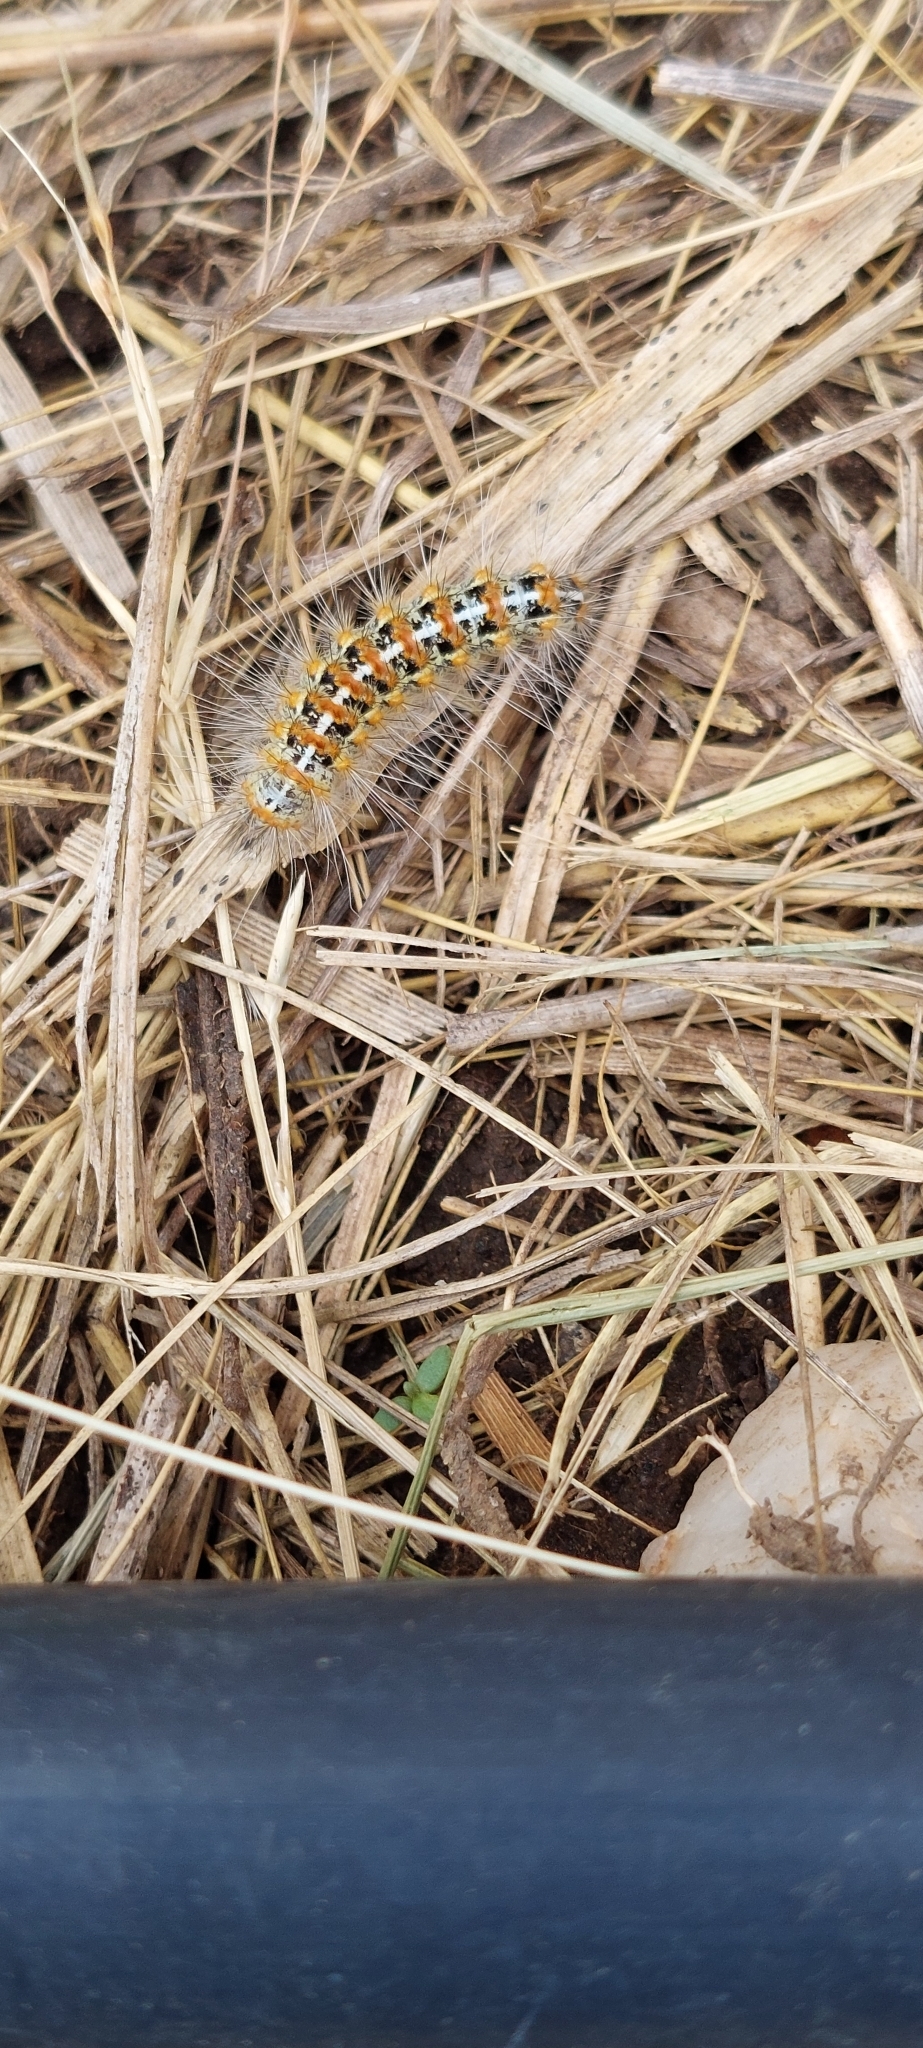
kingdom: Animalia
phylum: Arthropoda
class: Insecta
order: Lepidoptera
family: Erebidae
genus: Paracles
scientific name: Paracles deserticola
